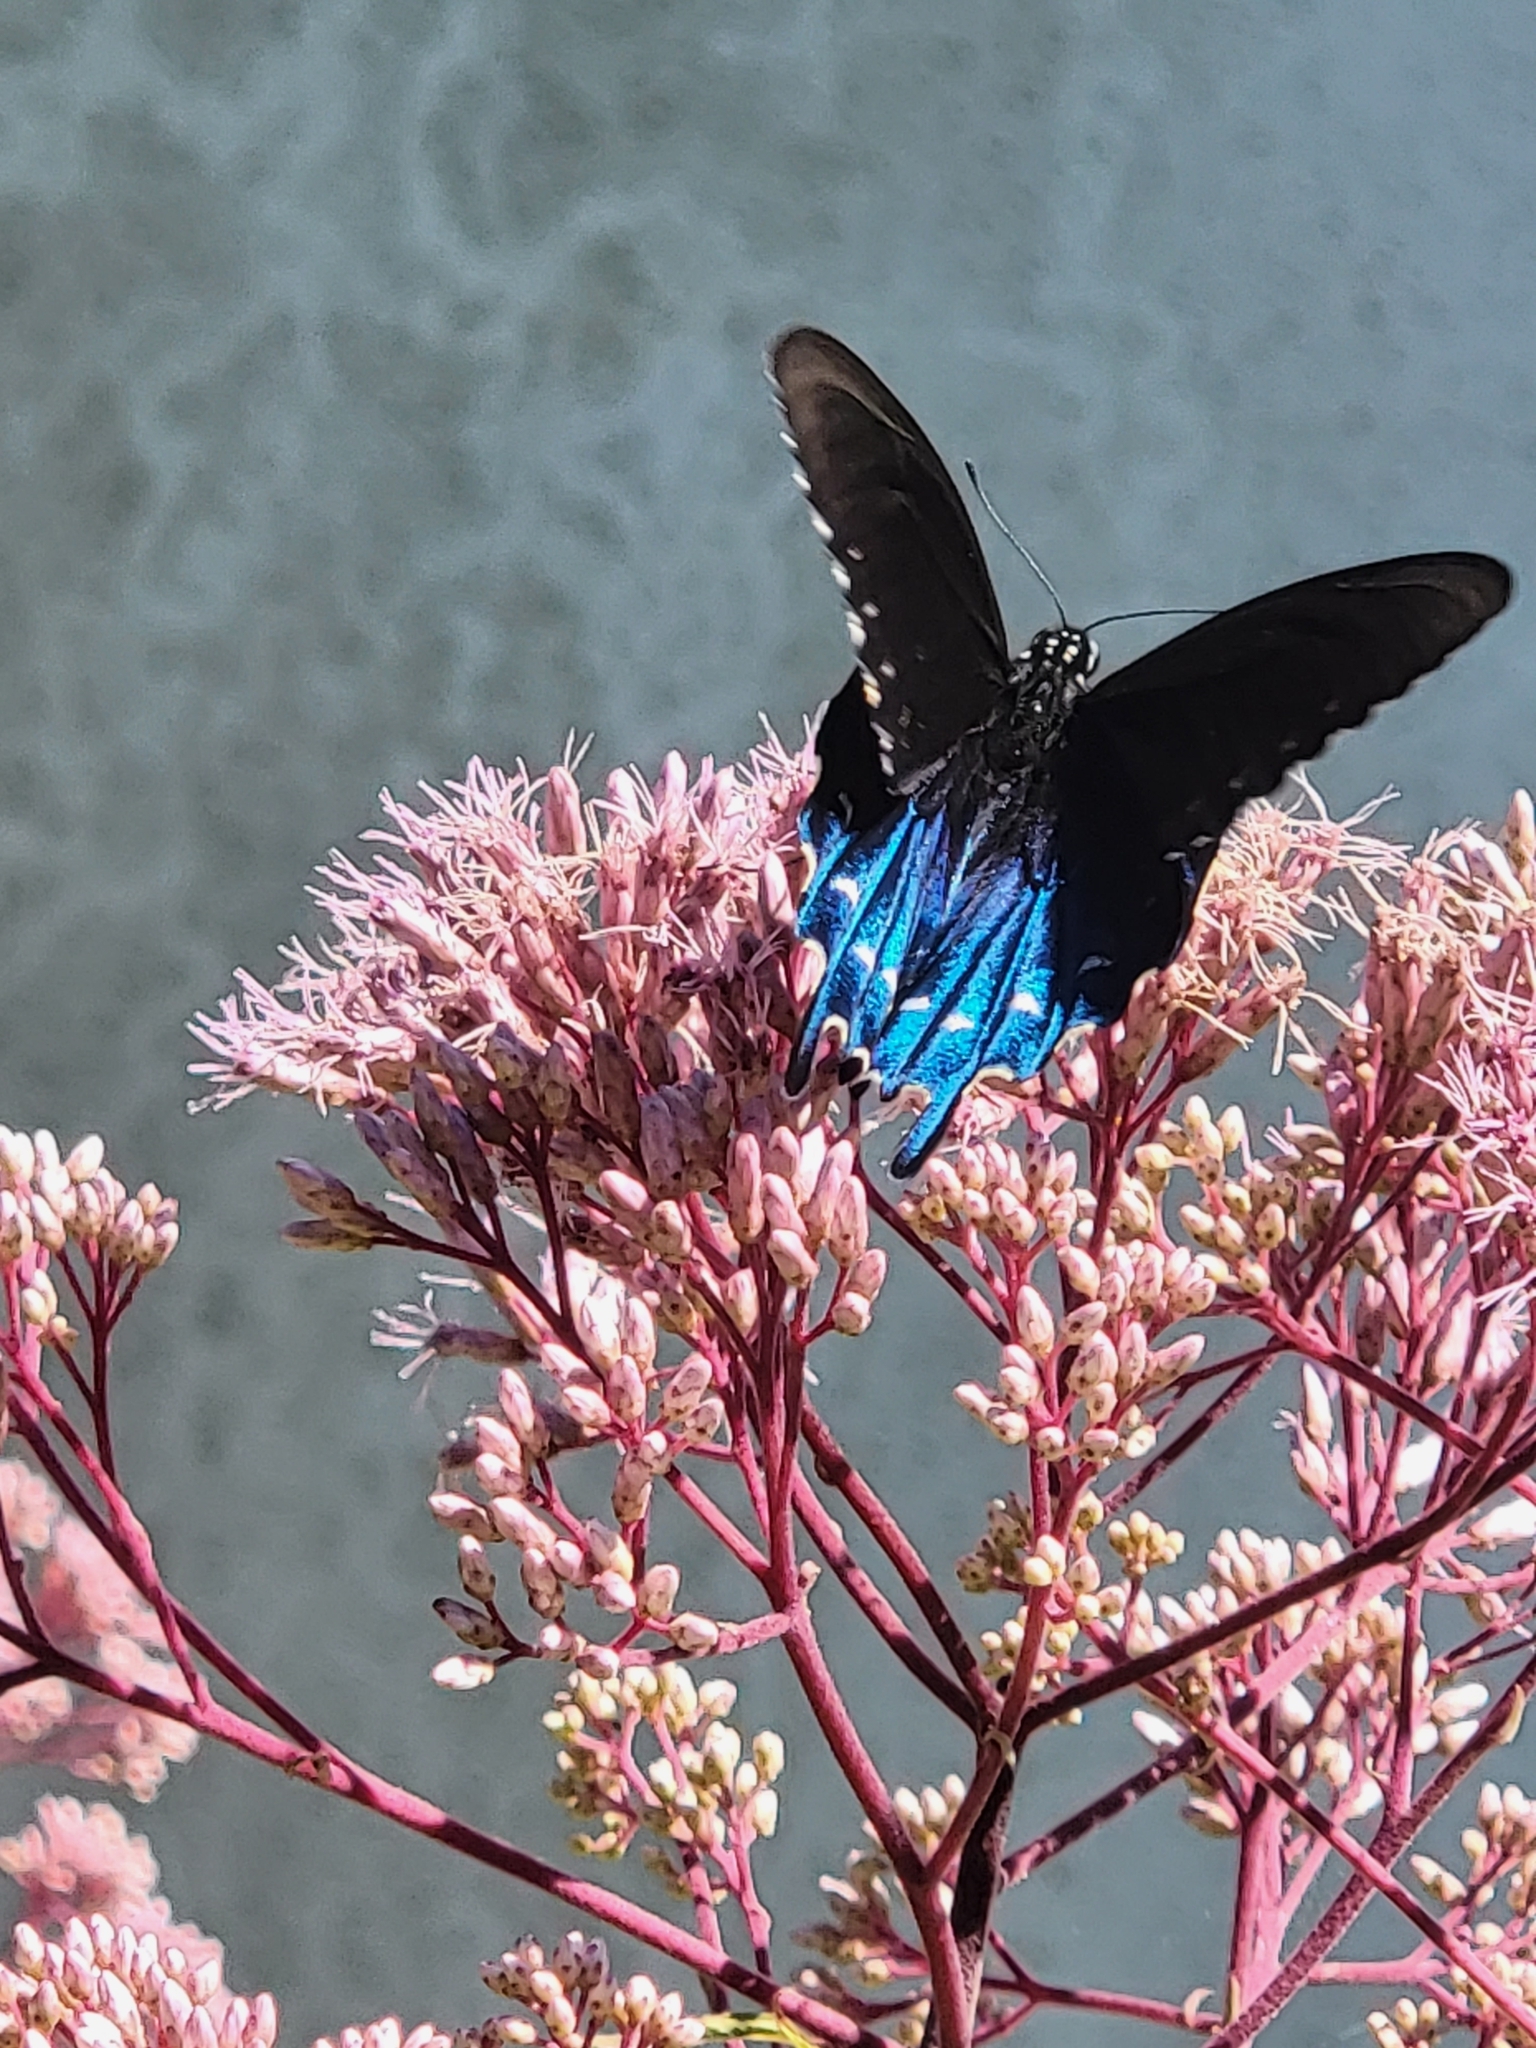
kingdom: Animalia
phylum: Arthropoda
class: Insecta
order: Lepidoptera
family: Papilionidae
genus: Battus
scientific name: Battus philenor
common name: Pipevine swallowtail
